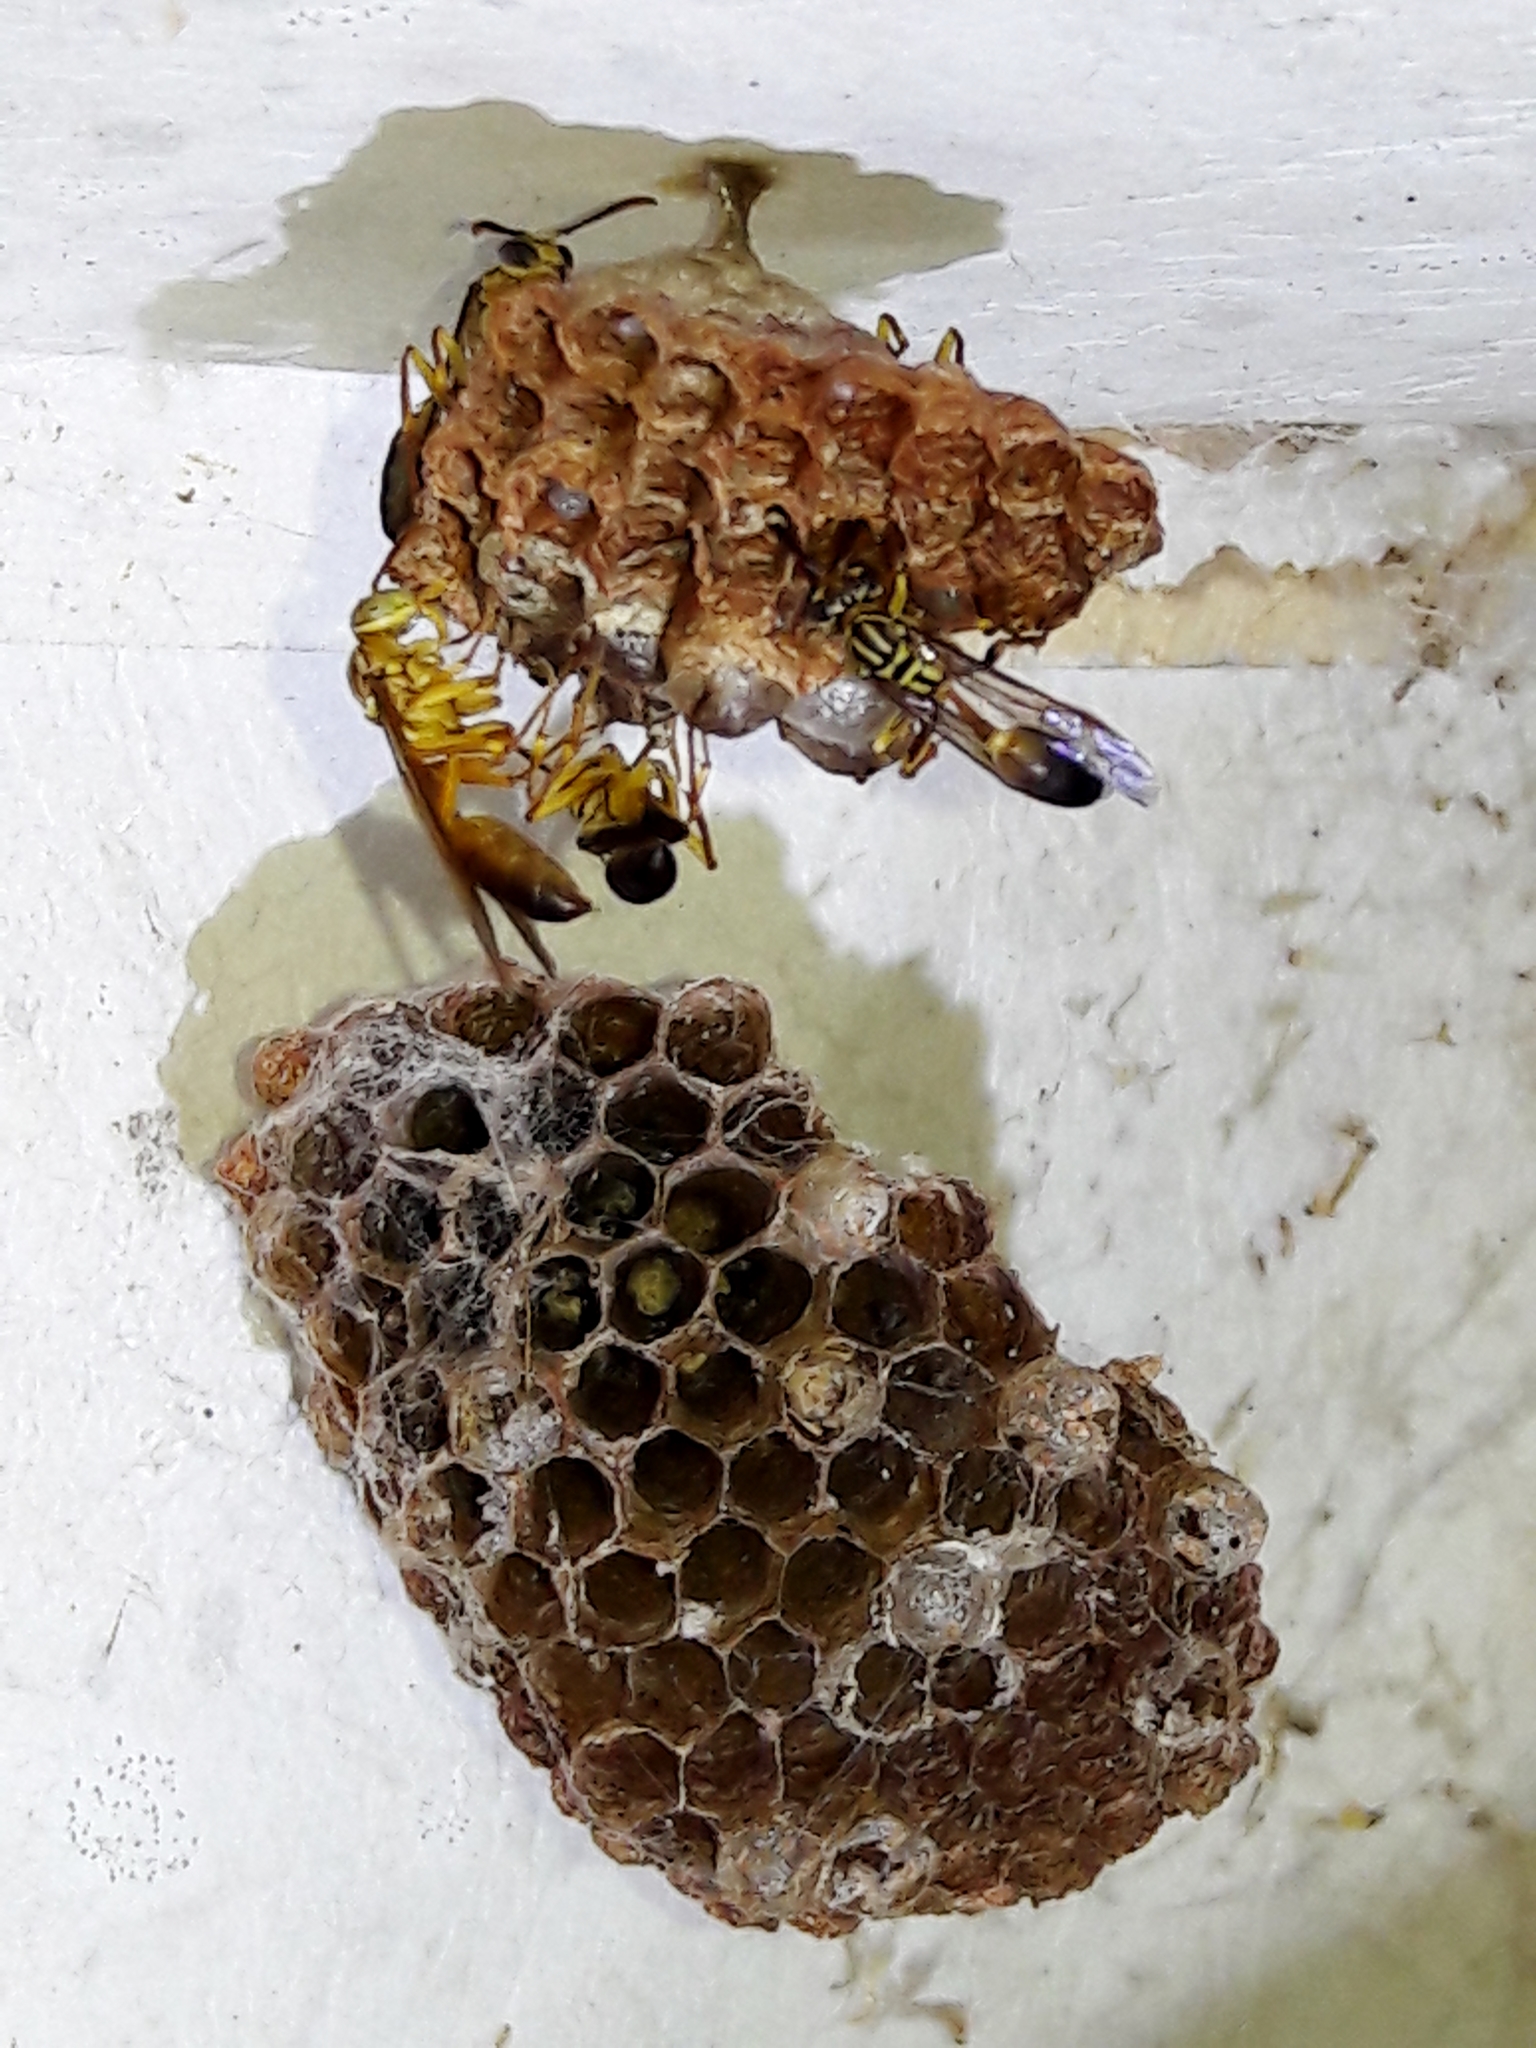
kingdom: Animalia
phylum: Arthropoda
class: Insecta
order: Hymenoptera
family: Vespidae
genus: Mischocyttarus
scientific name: Mischocyttarus cerberus
